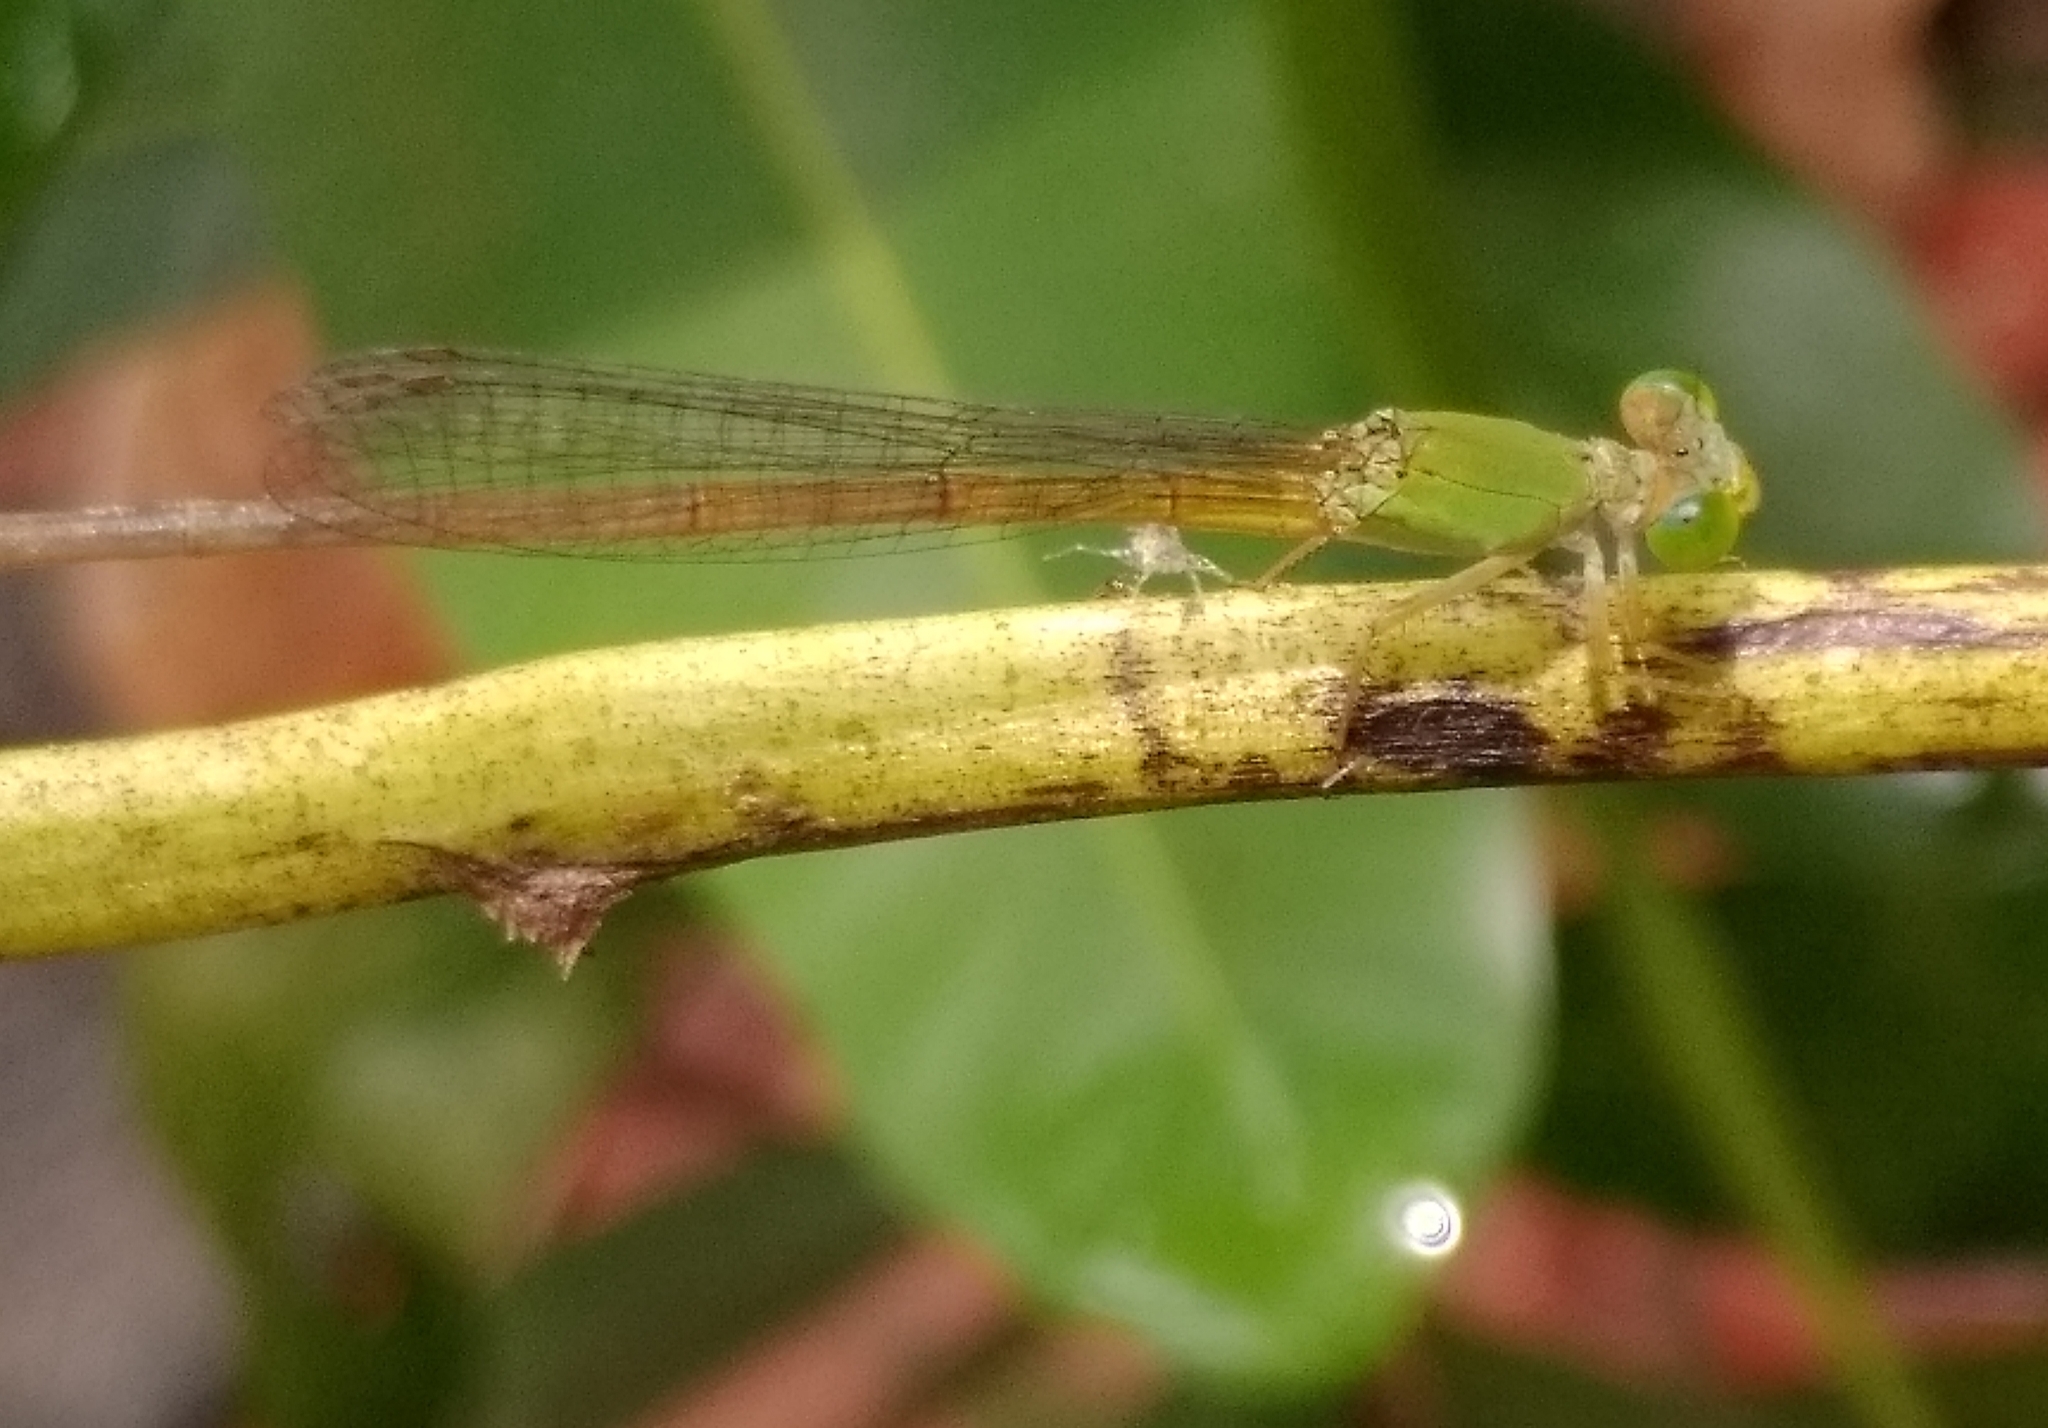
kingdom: Animalia
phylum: Arthropoda
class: Insecta
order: Odonata
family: Coenagrionidae
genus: Ceriagrion
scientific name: Ceriagrion coromandelianum
